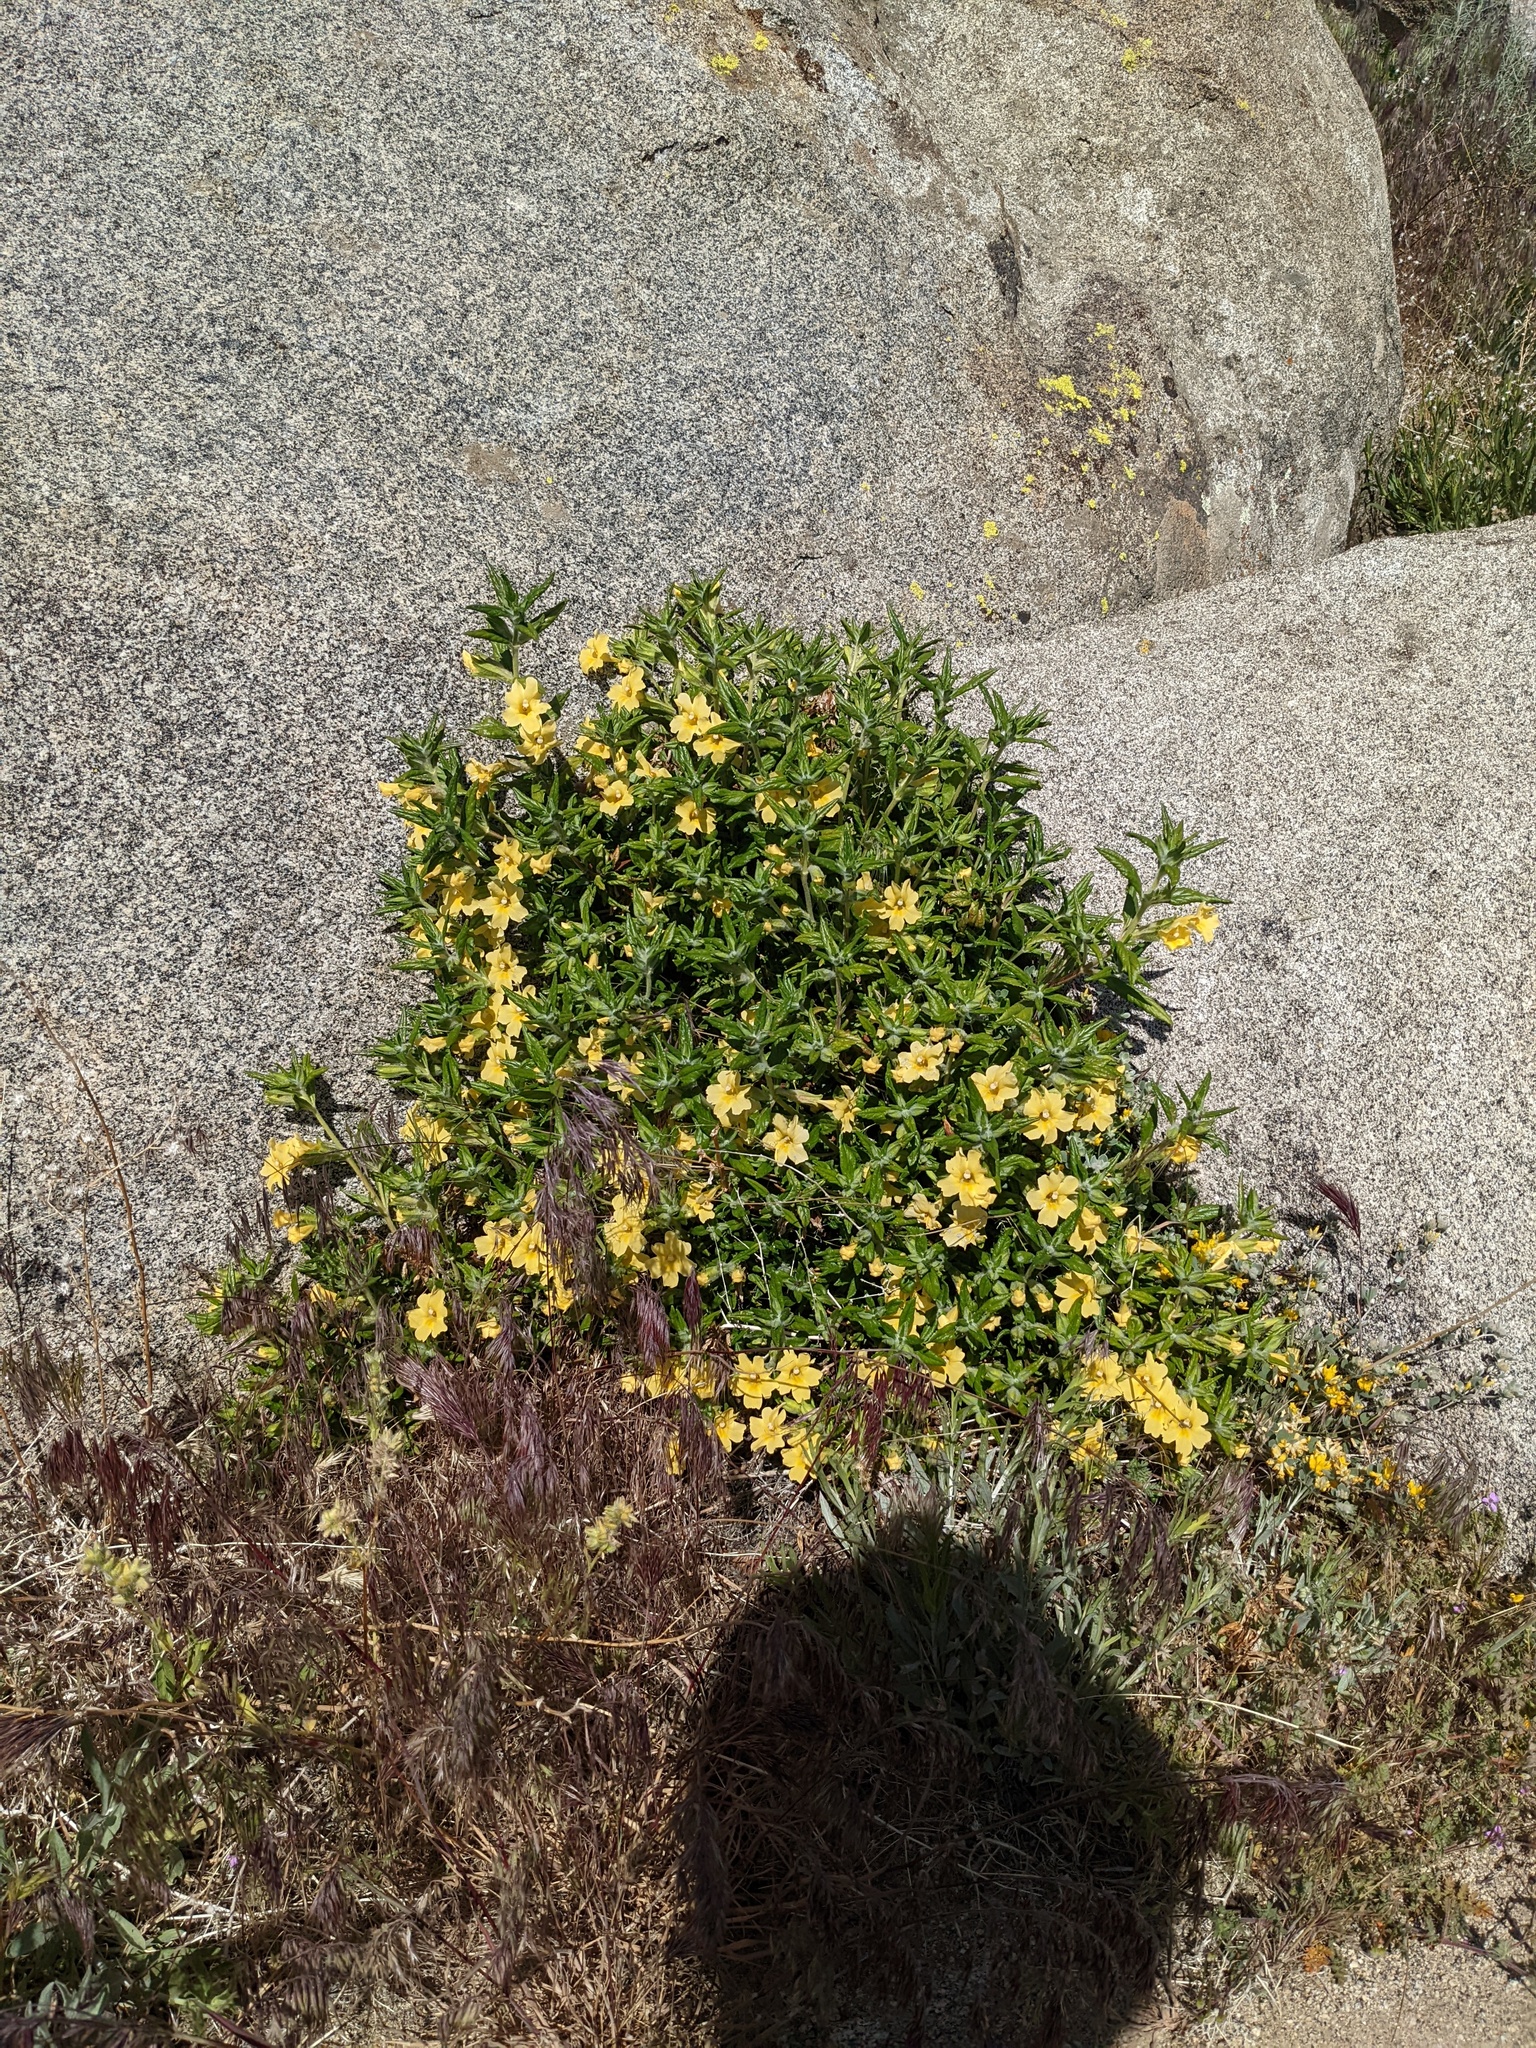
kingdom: Plantae
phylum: Tracheophyta
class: Magnoliopsida
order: Lamiales
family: Phrymaceae
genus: Diplacus
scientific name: Diplacus calycinus
